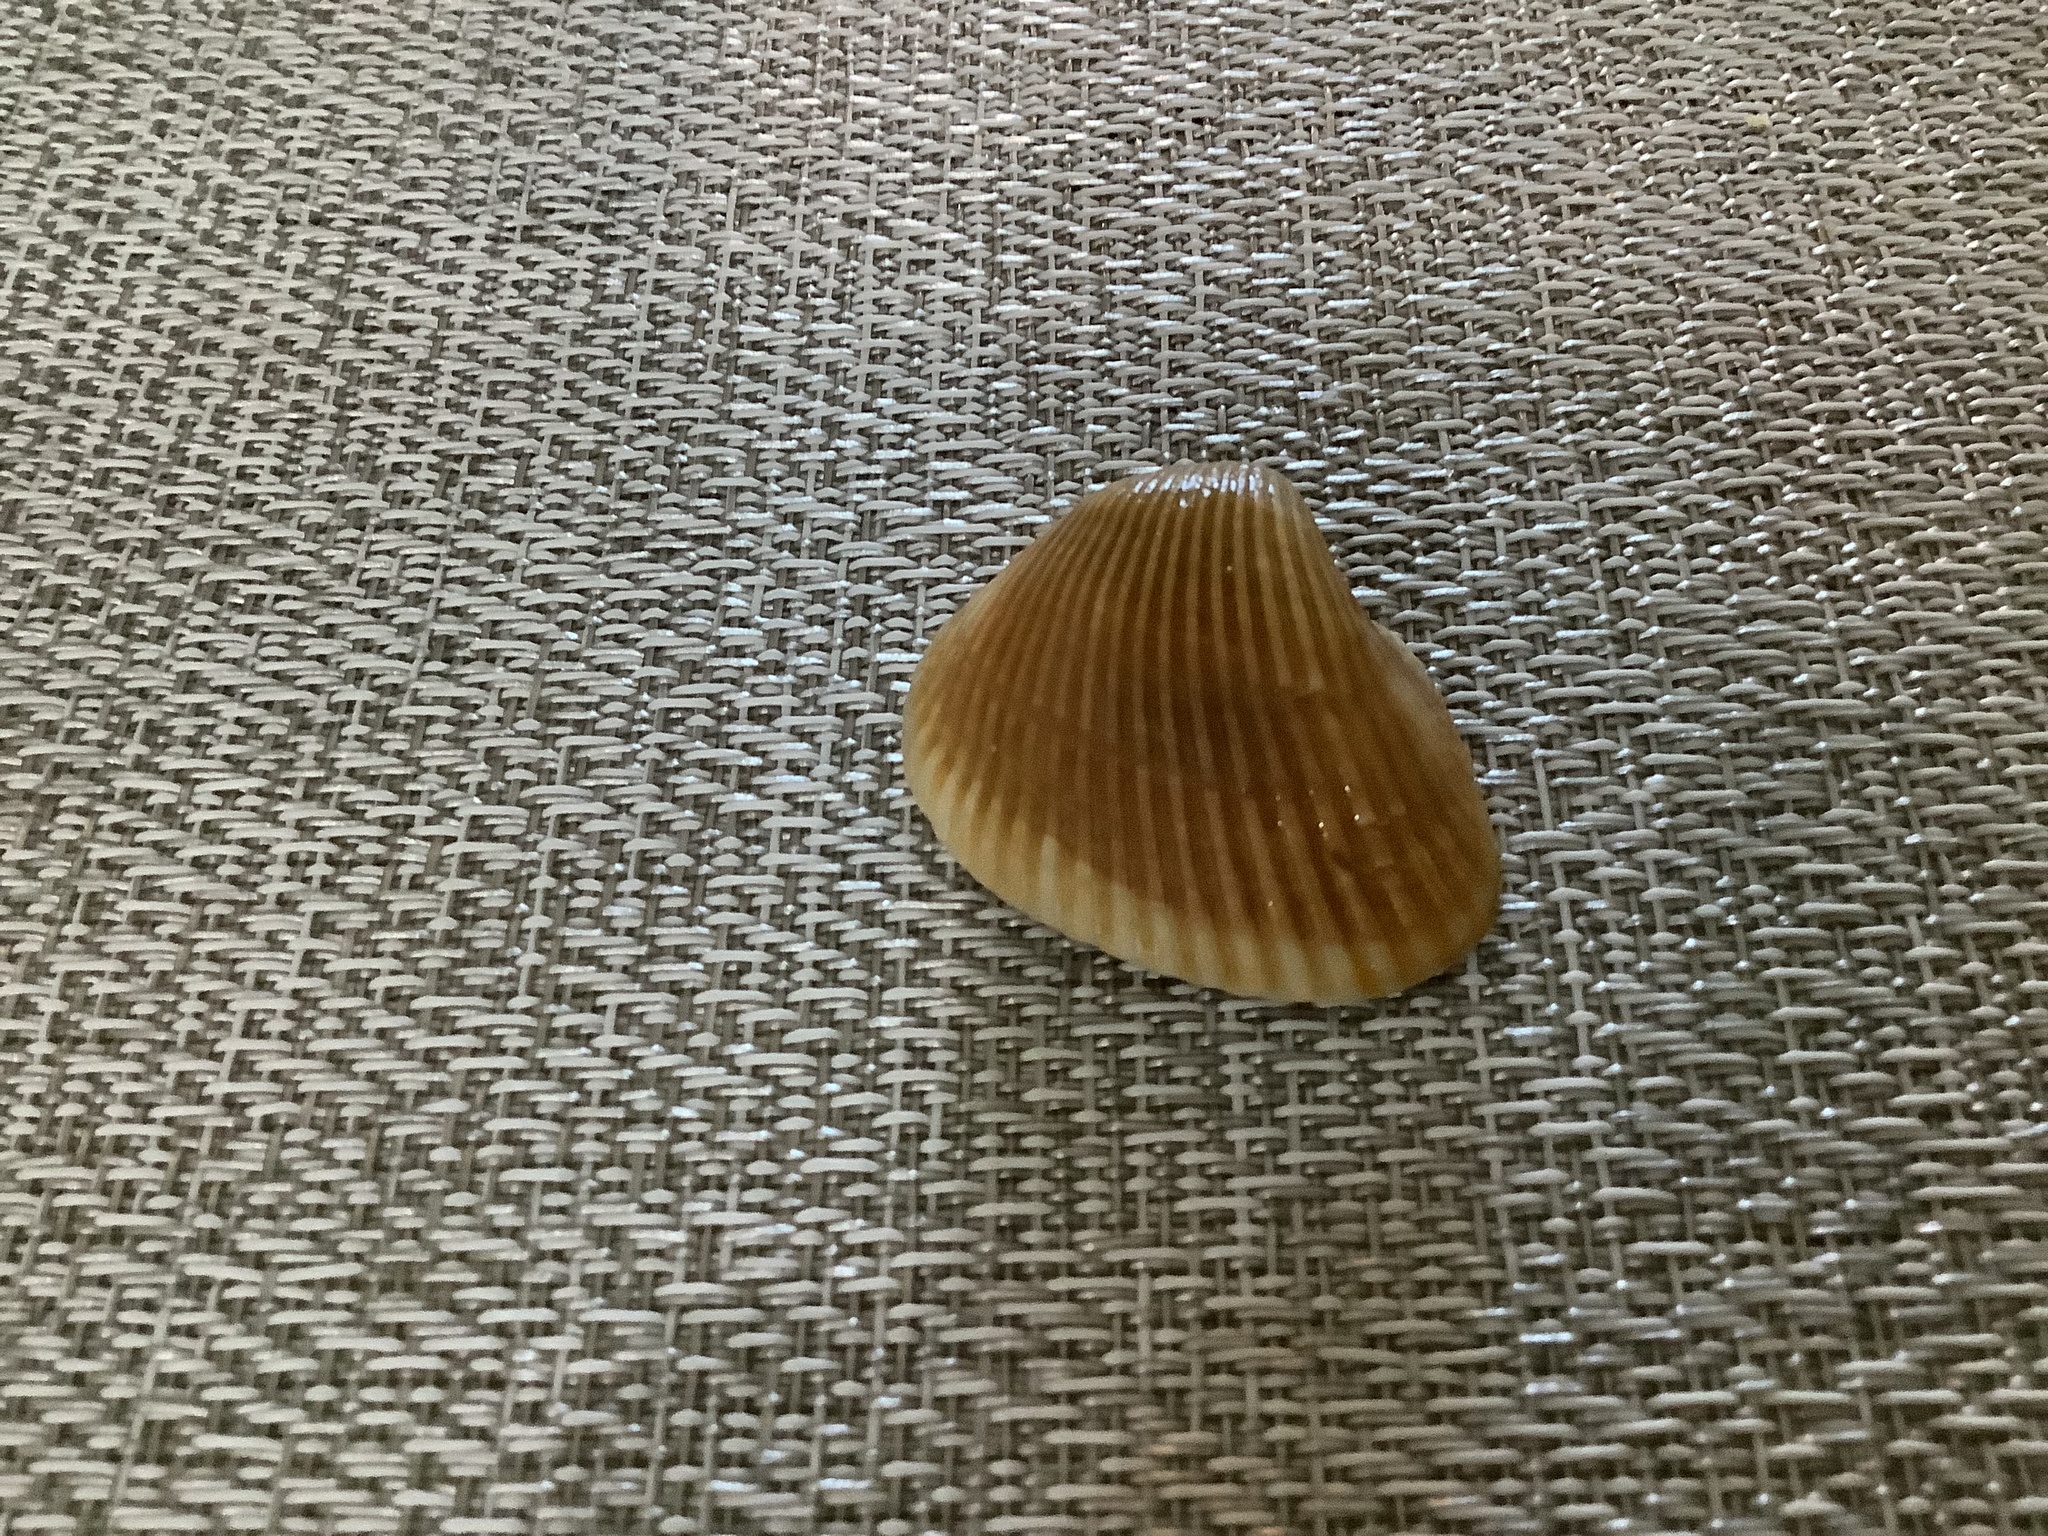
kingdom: Animalia
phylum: Mollusca
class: Bivalvia
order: Arcida
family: Noetiidae
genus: Noetia
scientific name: Noetia ponderosa
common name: Ponderous ark
